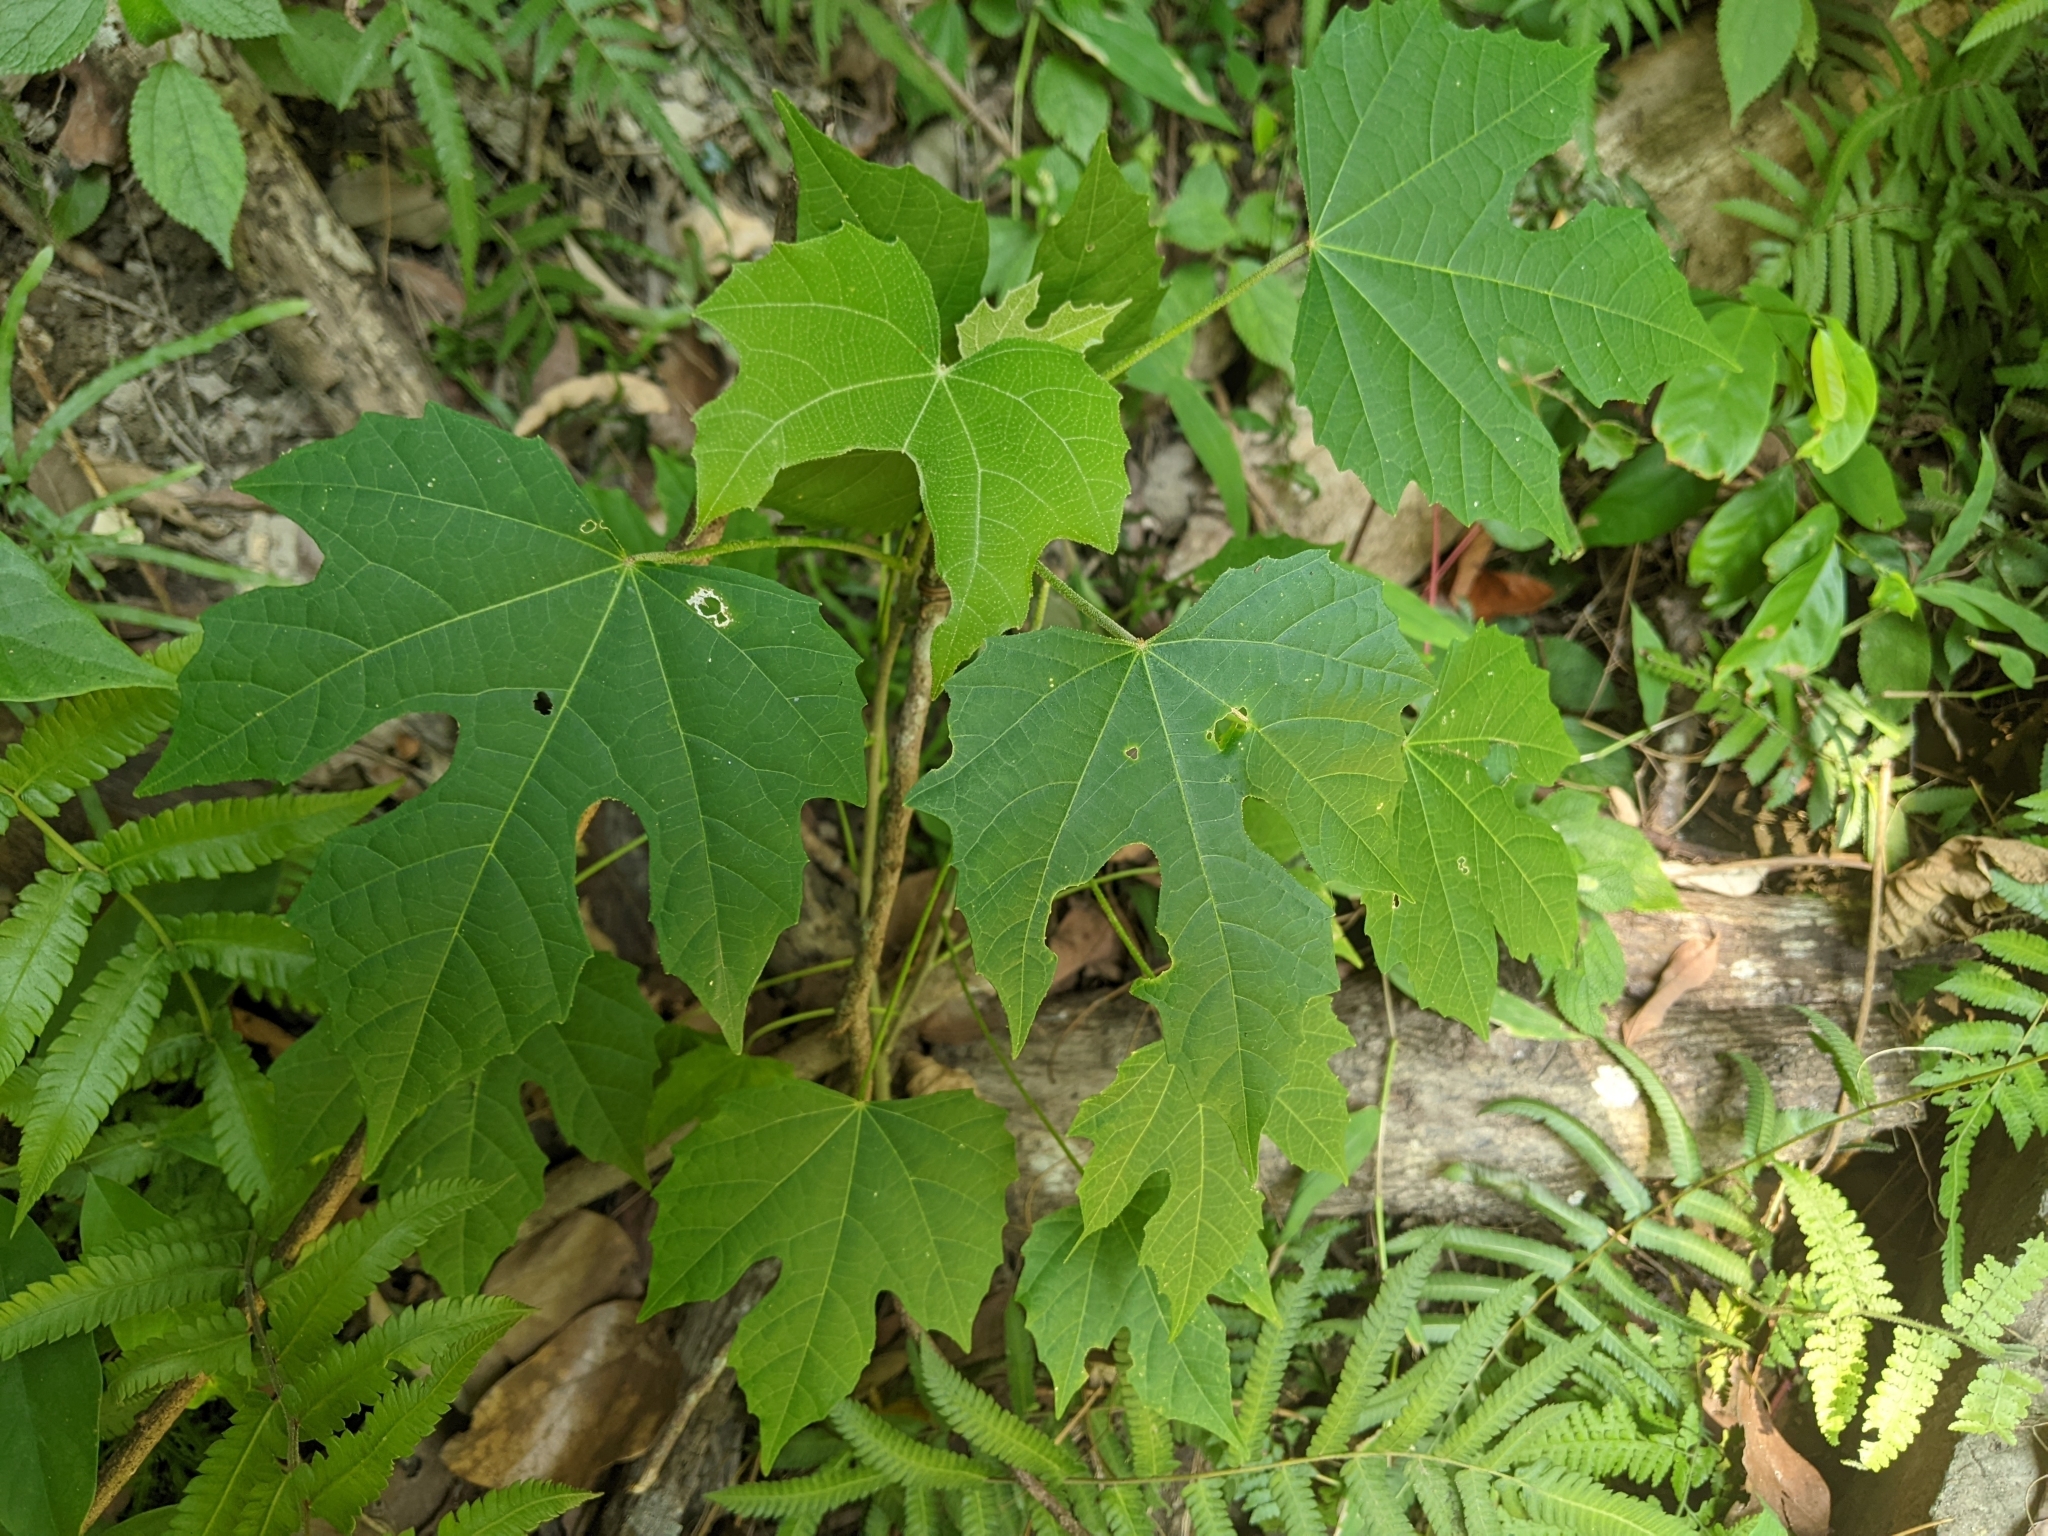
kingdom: Plantae
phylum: Tracheophyta
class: Magnoliopsida
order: Malpighiales
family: Euphorbiaceae
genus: Melanolepis
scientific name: Melanolepis multiglandulosa
